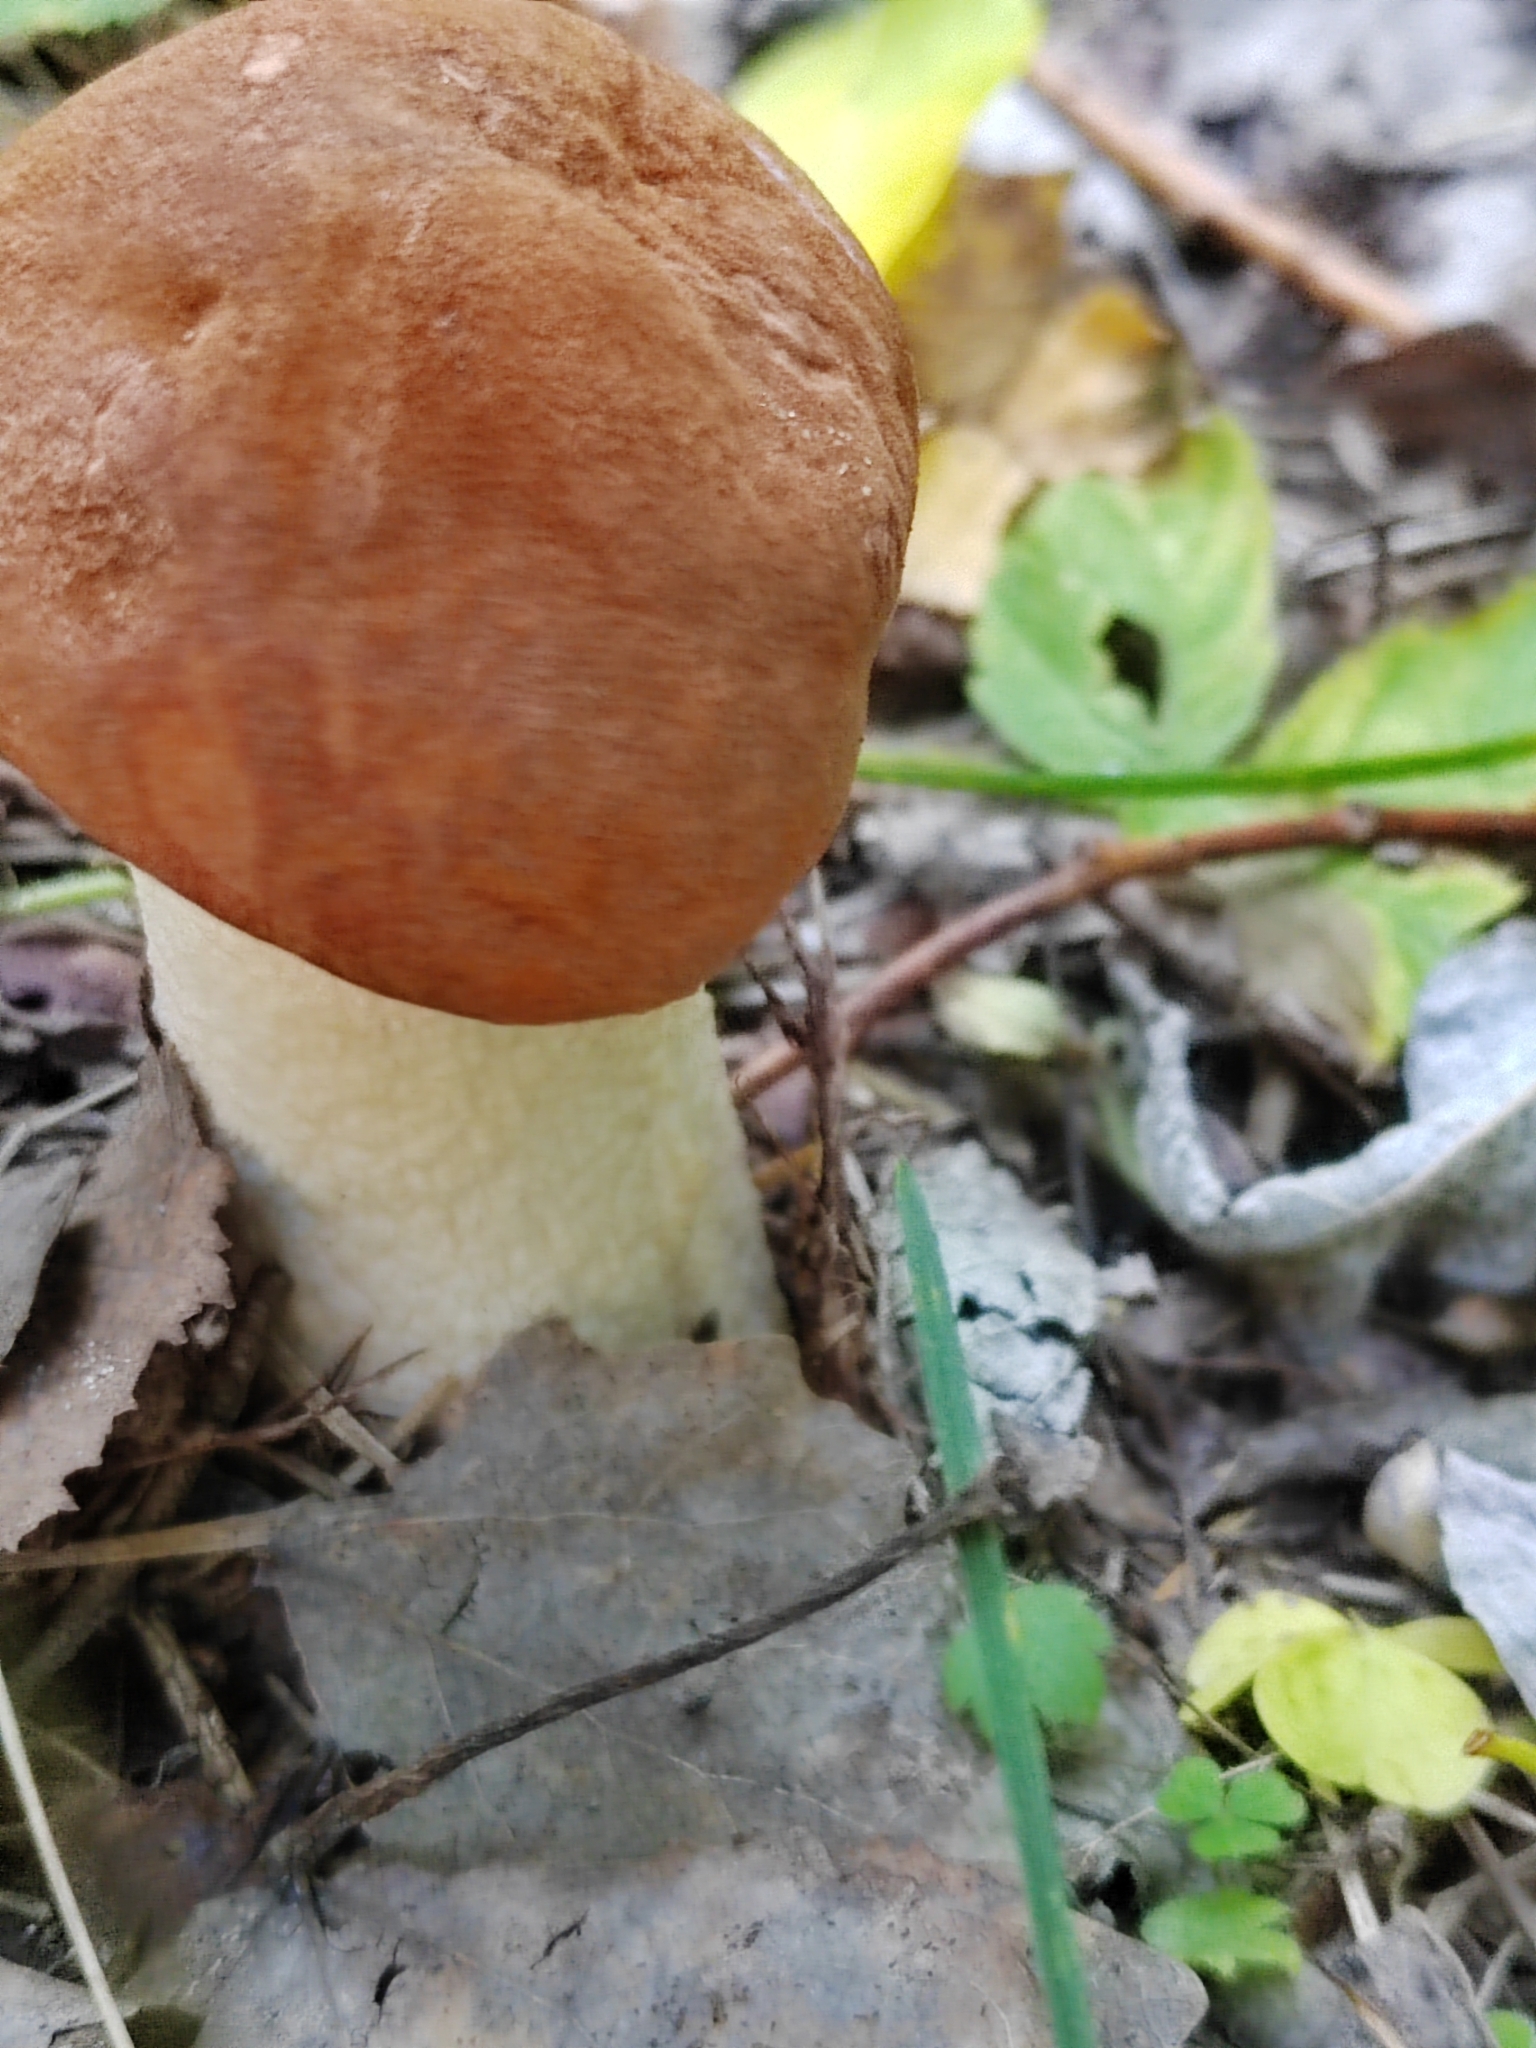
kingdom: Fungi
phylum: Basidiomycota
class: Agaricomycetes
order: Boletales
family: Boletaceae
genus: Leccinum
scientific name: Leccinum albostipitatum
